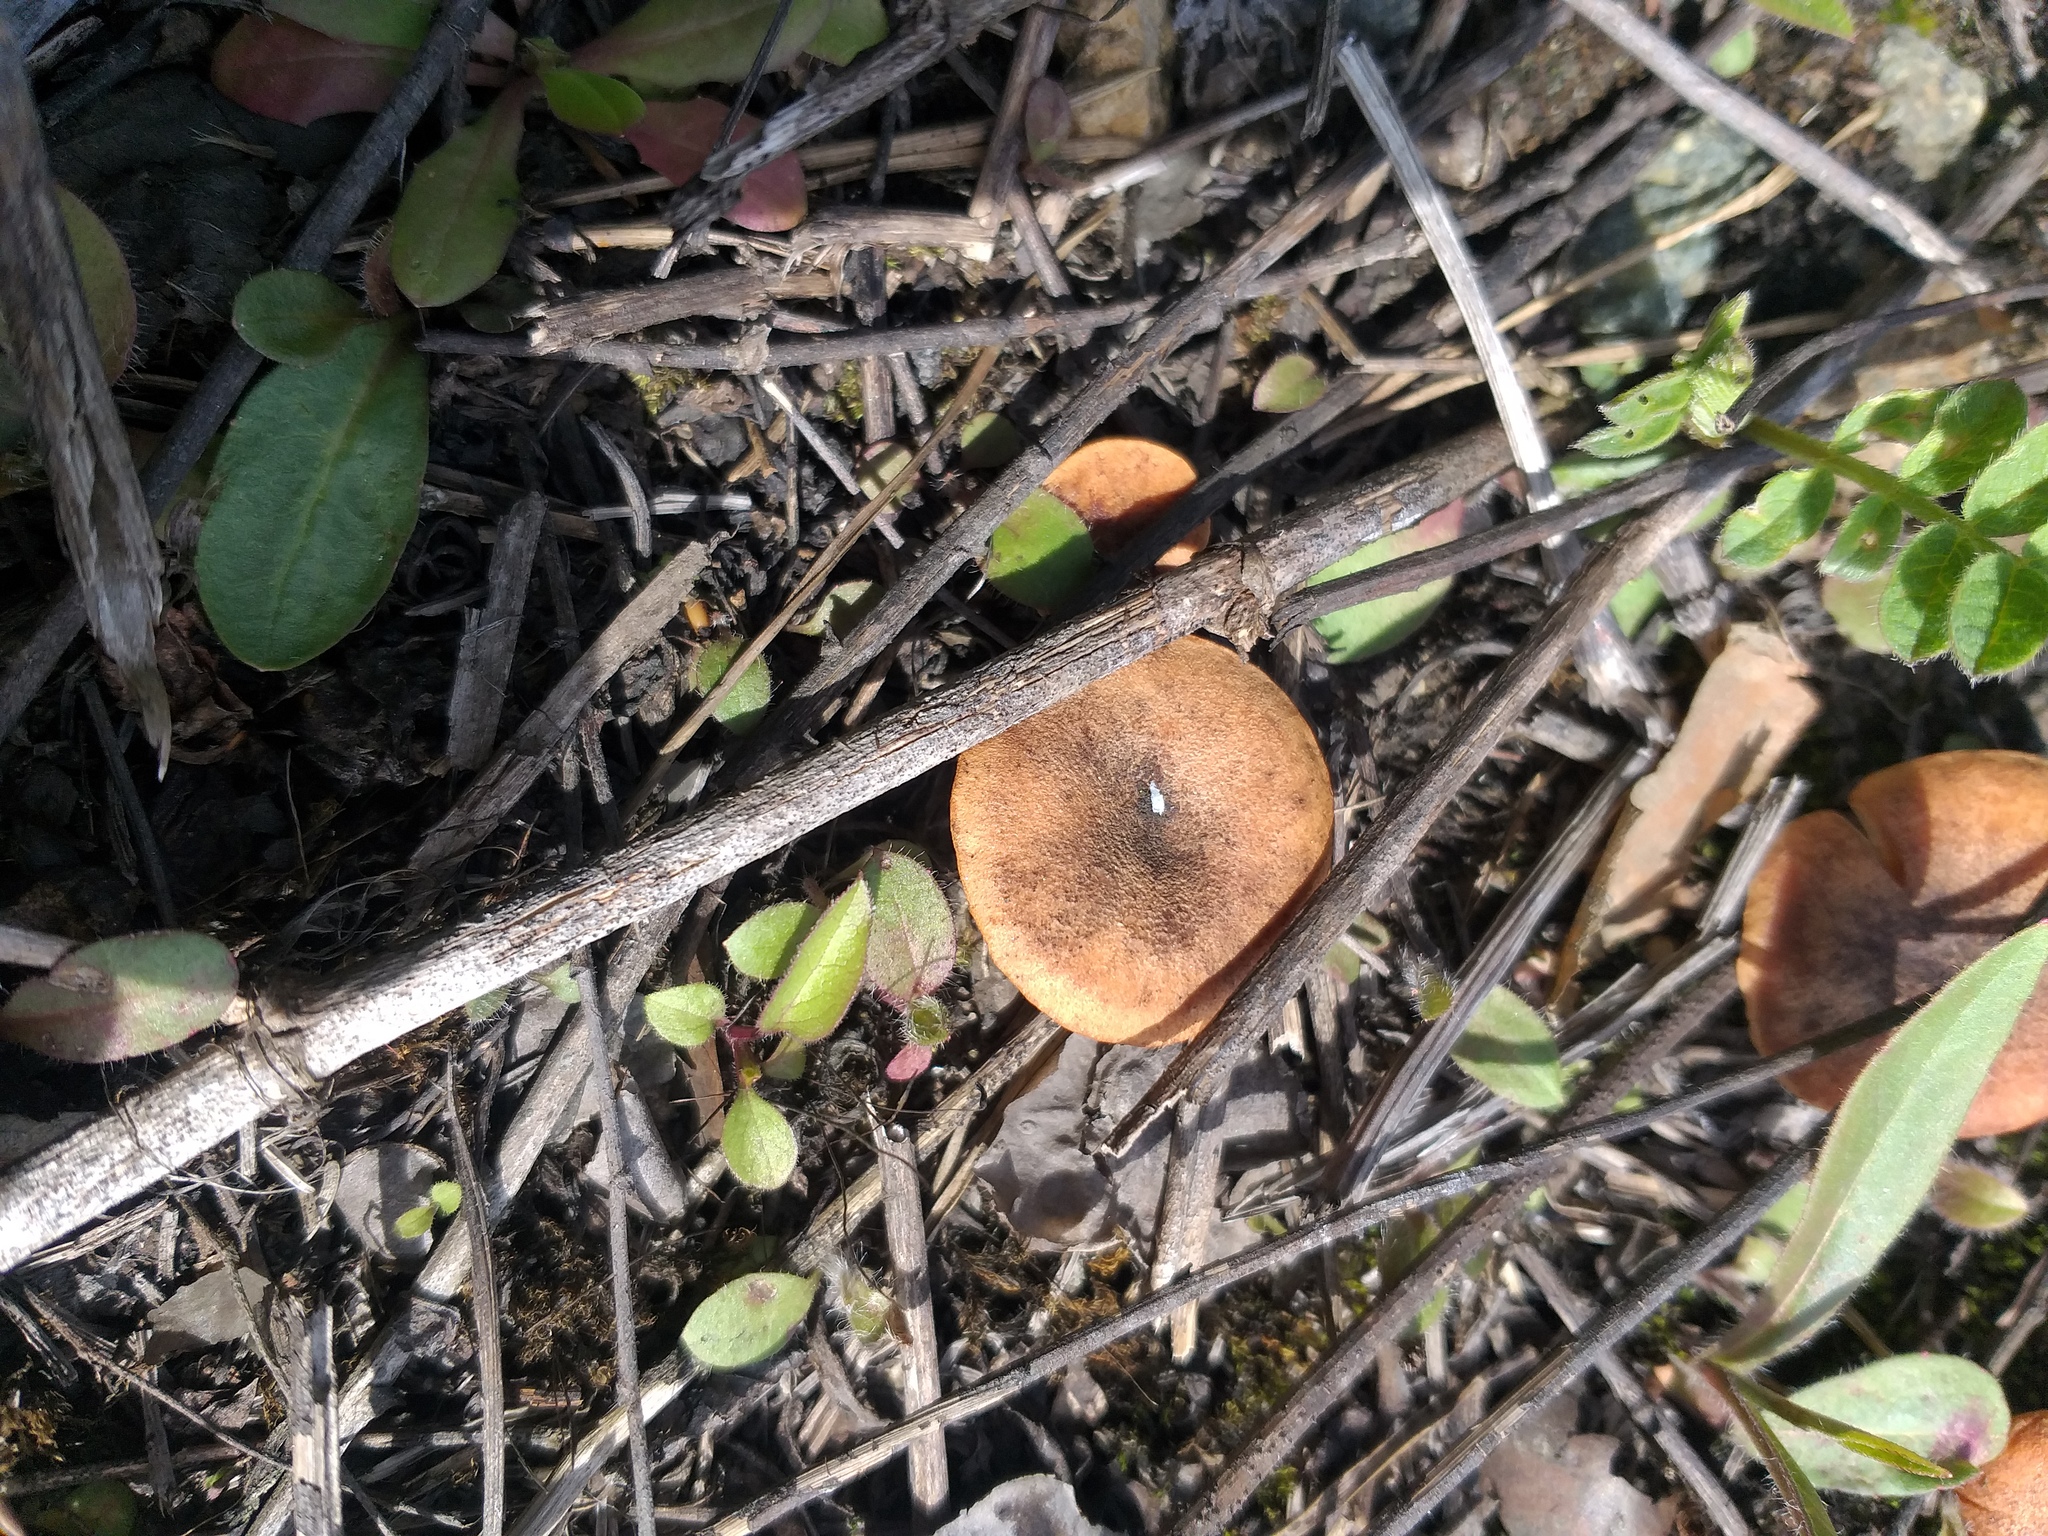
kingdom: Fungi
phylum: Basidiomycota
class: Agaricomycetes
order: Agaricales
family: Pseudoclitocybaceae
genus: Bonomyces
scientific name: Bonomyces sinopicus
